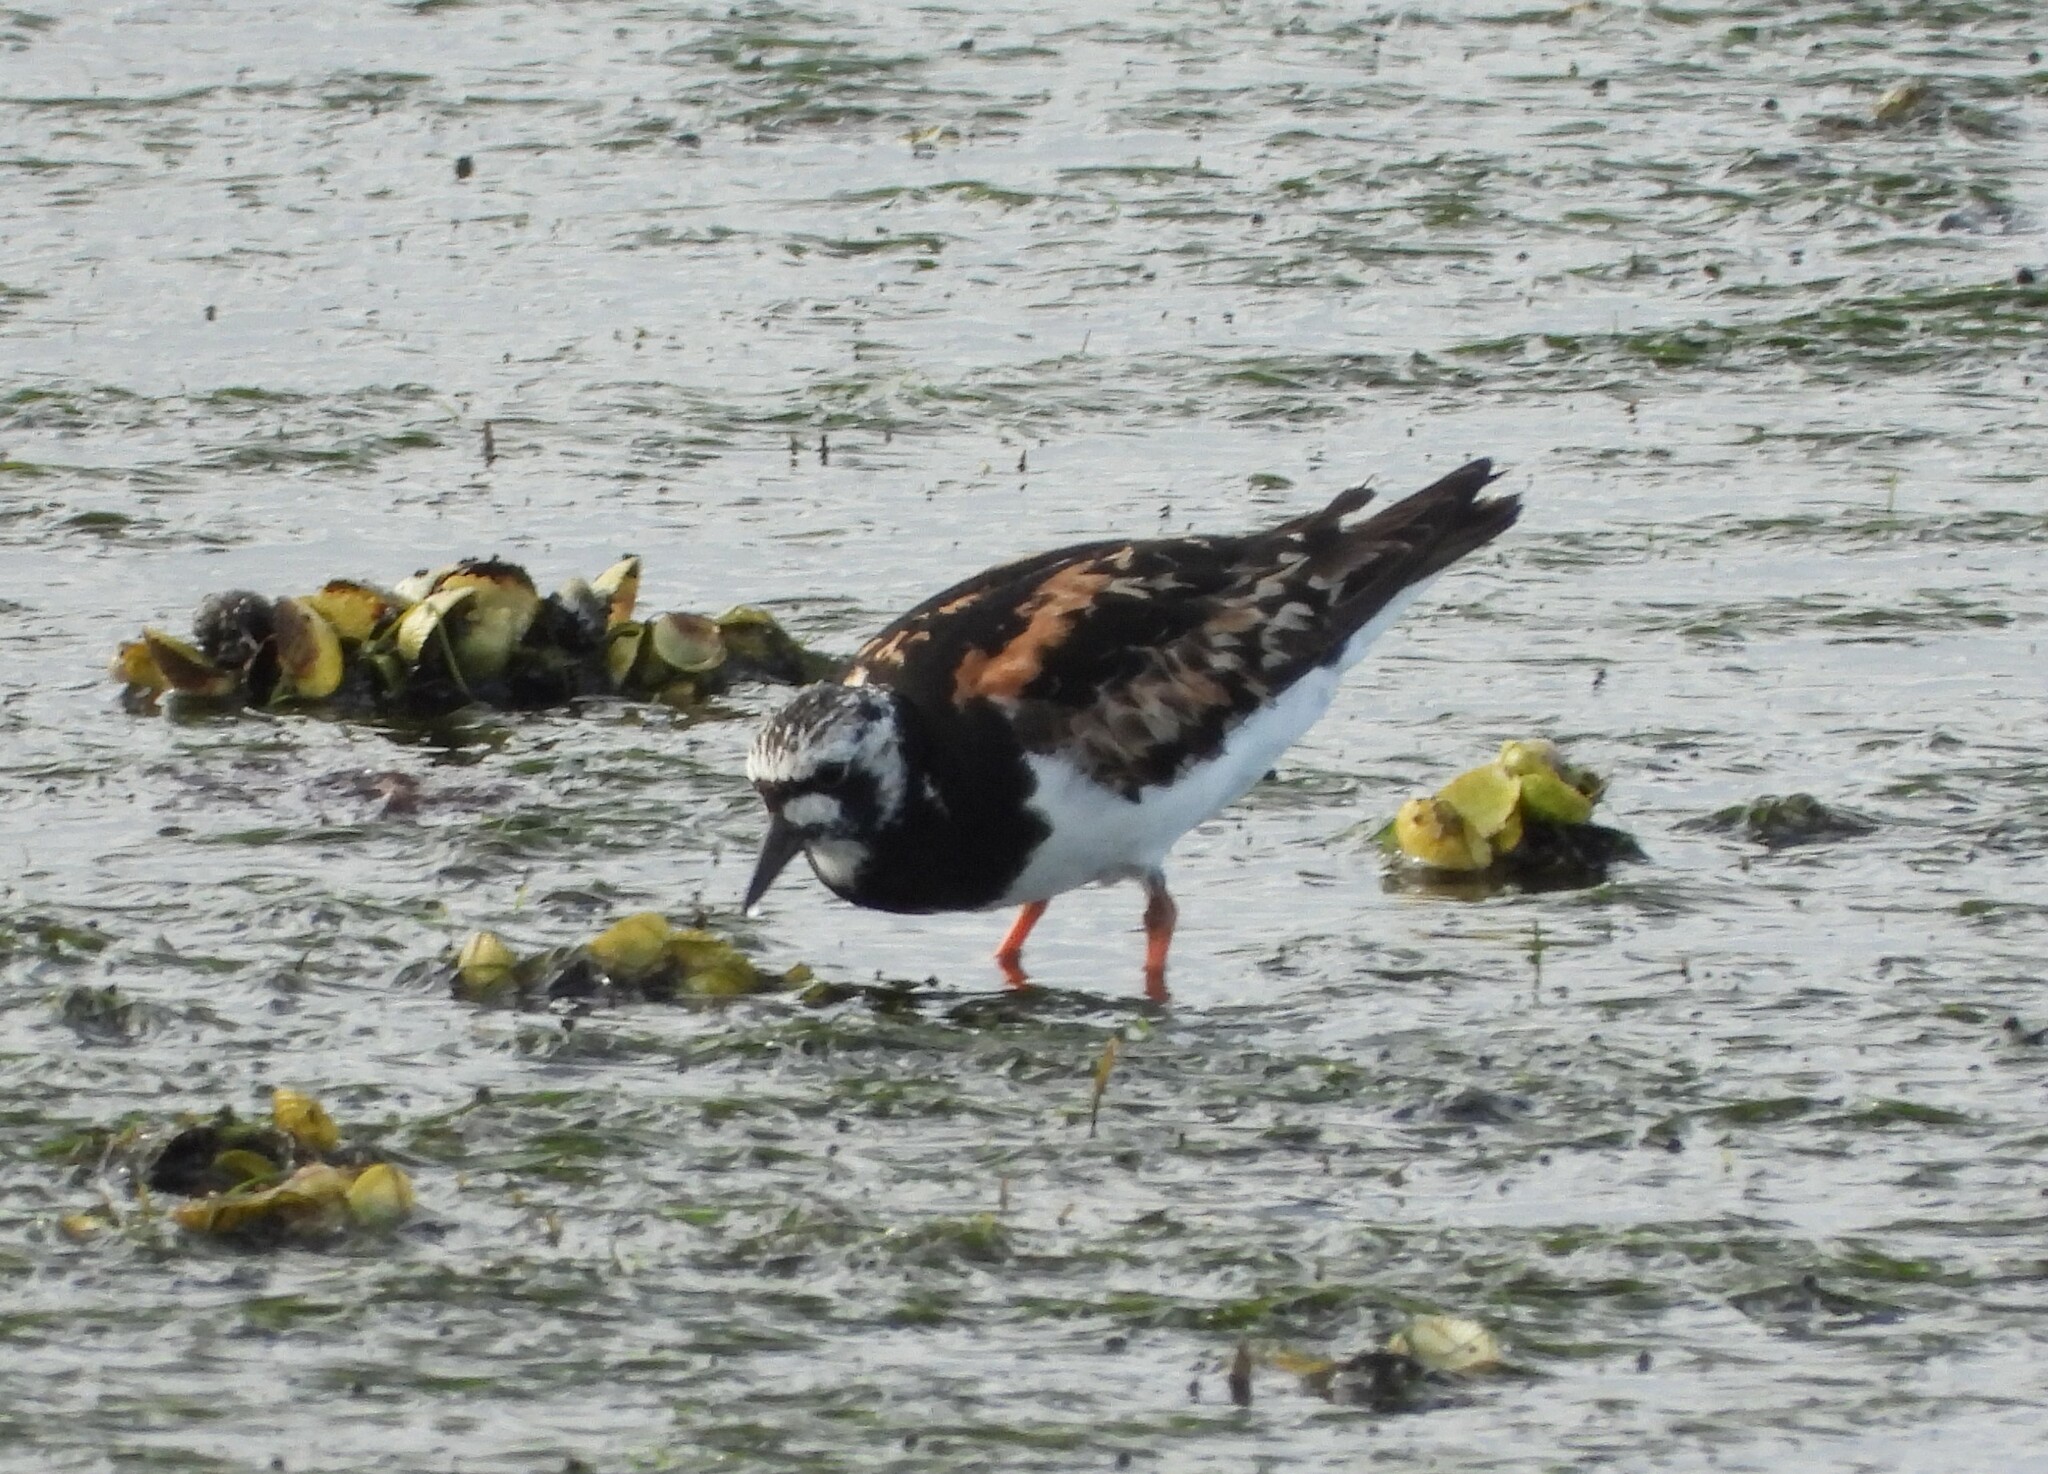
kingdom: Animalia
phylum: Chordata
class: Aves
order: Charadriiformes
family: Scolopacidae
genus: Arenaria
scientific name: Arenaria interpres
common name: Ruddy turnstone
